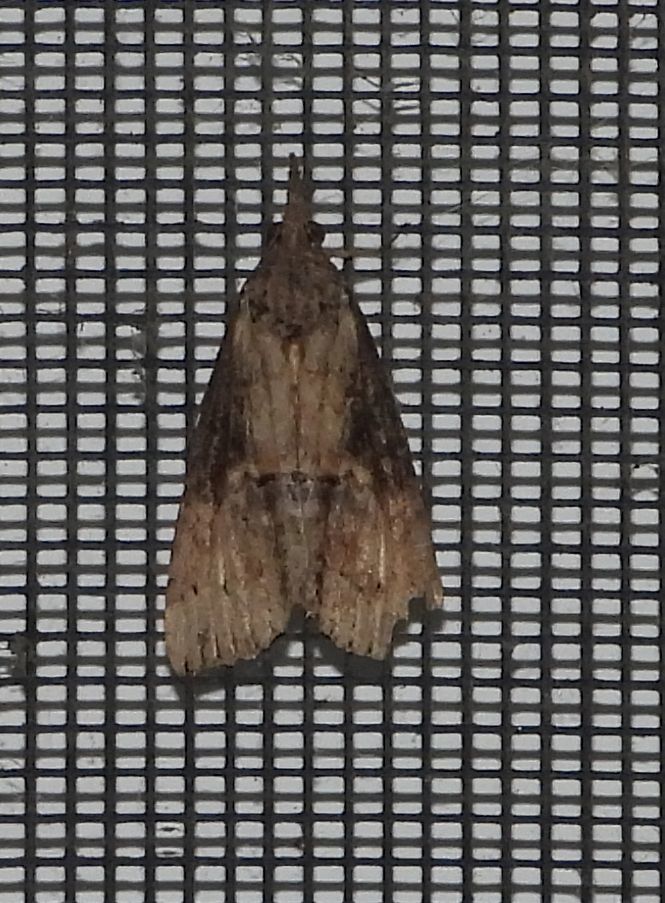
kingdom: Animalia
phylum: Arthropoda
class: Insecta
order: Lepidoptera
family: Erebidae
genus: Hypena
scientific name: Hypena scabra
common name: Green cloverworm
